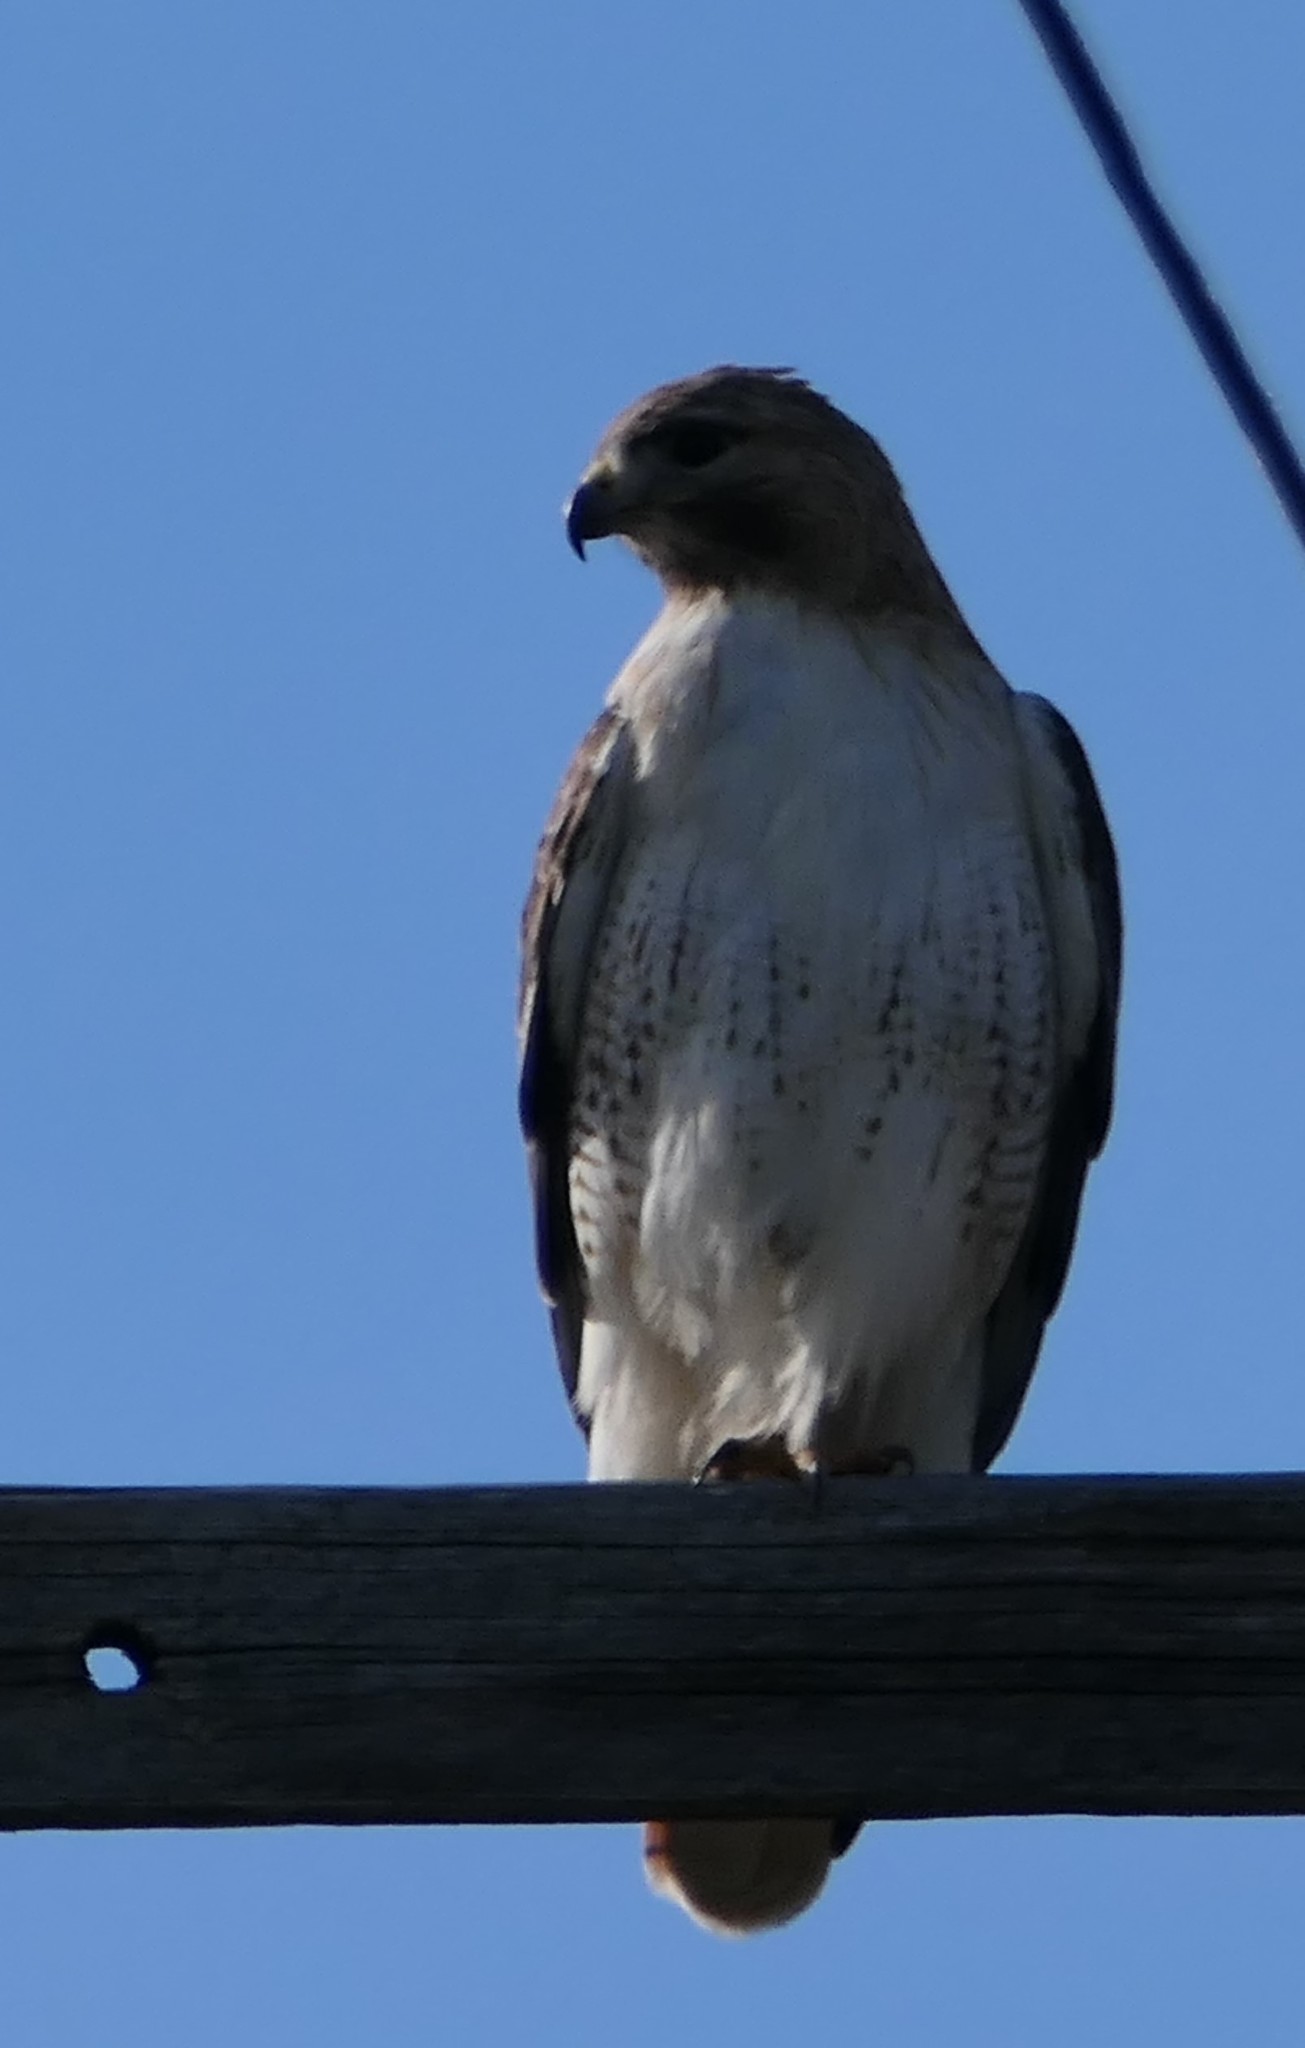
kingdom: Animalia
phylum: Chordata
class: Aves
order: Accipitriformes
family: Accipitridae
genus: Buteo
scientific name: Buteo jamaicensis
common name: Red-tailed hawk
